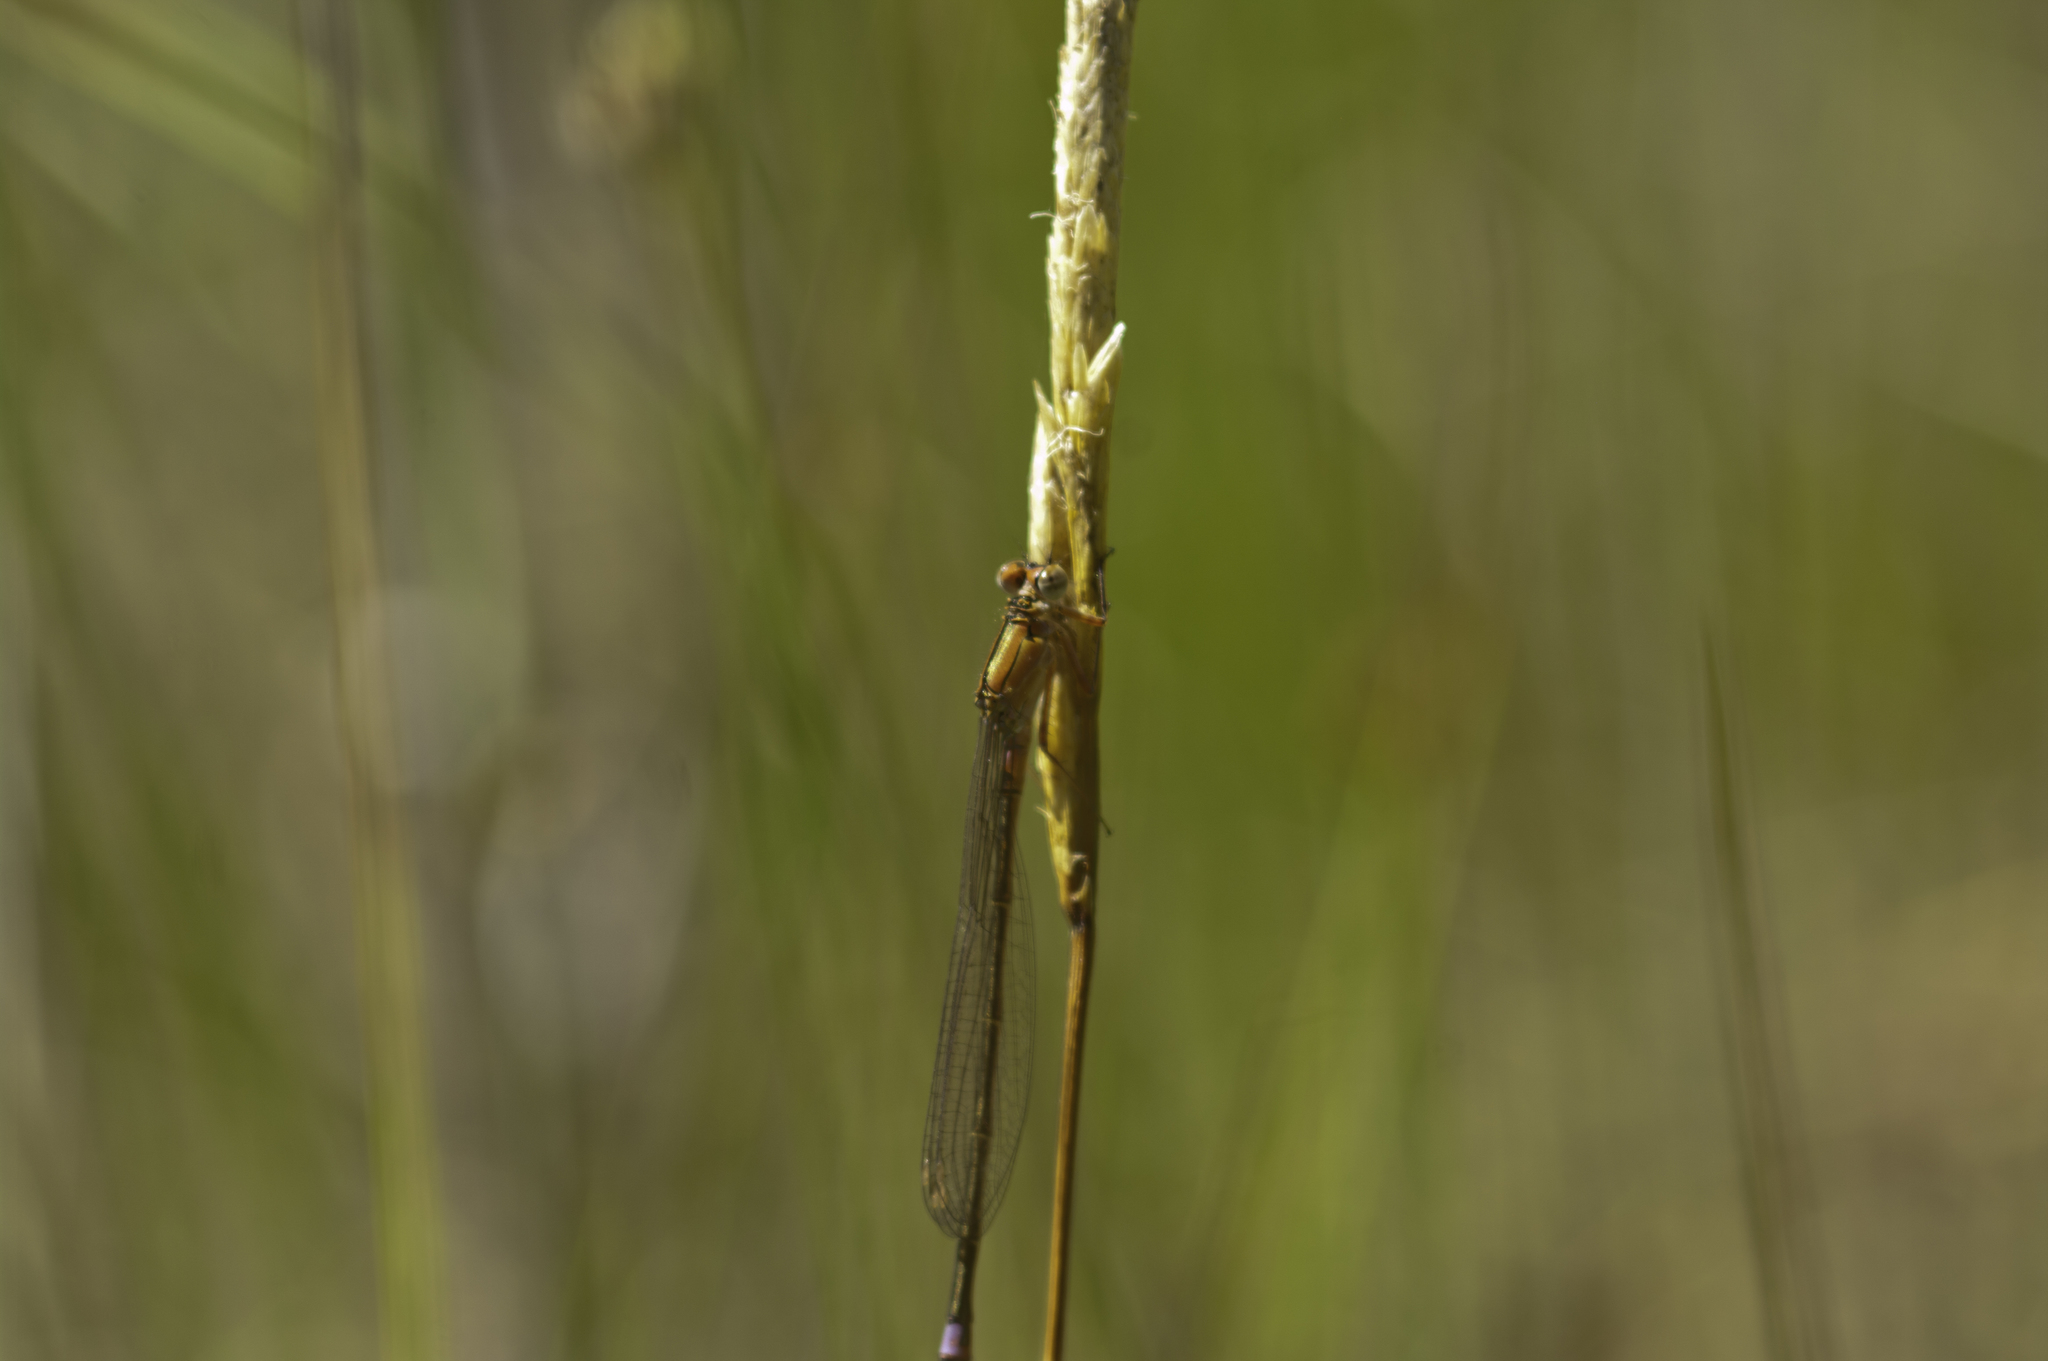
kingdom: Animalia
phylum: Arthropoda
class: Insecta
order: Odonata
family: Coenagrionidae
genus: Ischnura
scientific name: Ischnura damula
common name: Plains forktail
